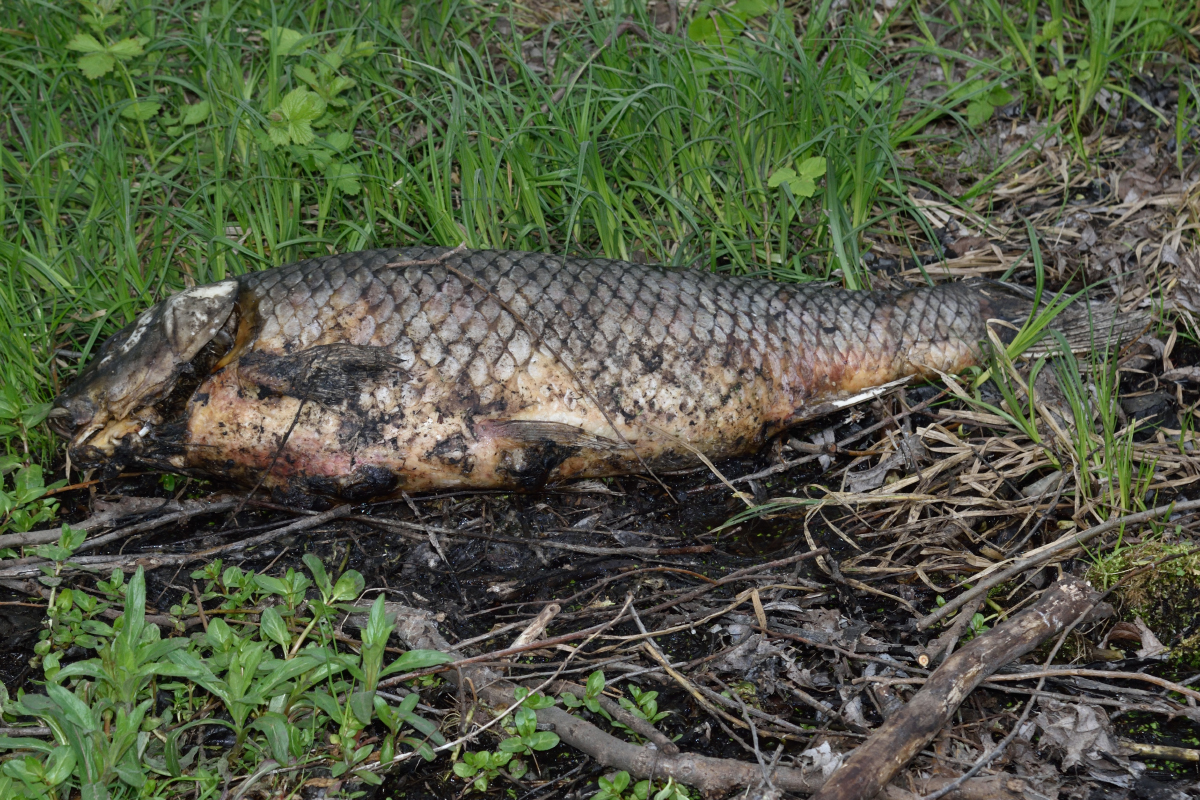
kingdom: Animalia
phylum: Chordata
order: Cypriniformes
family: Cyprinidae
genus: Cyprinus
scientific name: Cyprinus carpio
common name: Common carp
